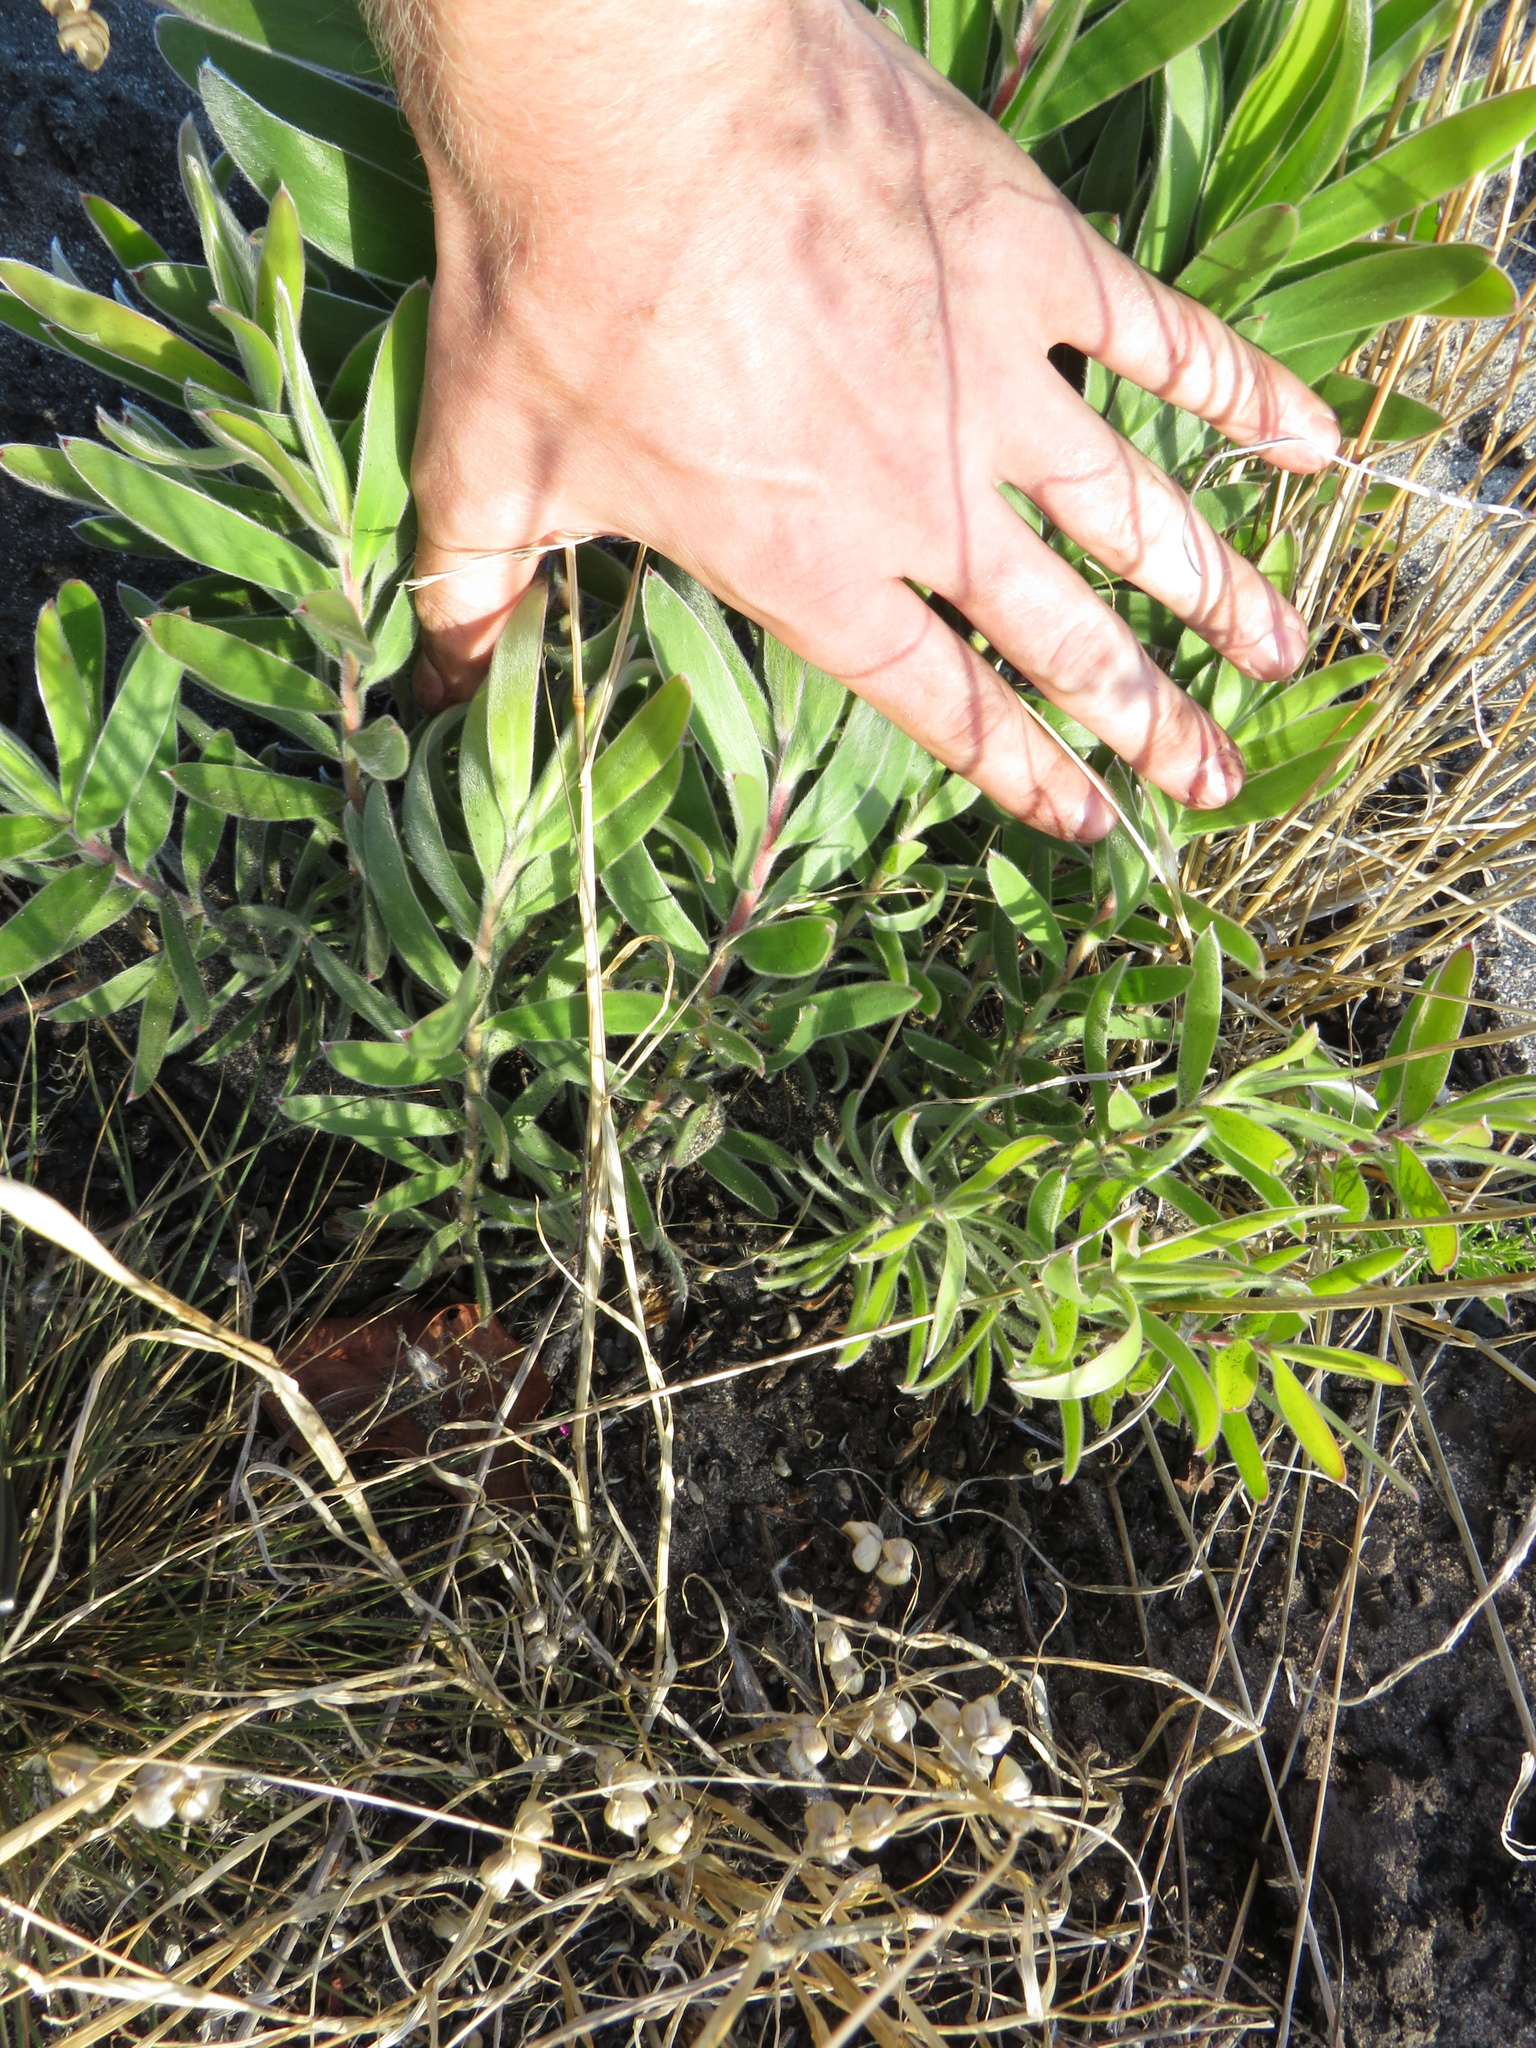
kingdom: Plantae
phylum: Tracheophyta
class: Magnoliopsida
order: Proteales
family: Proteaceae
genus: Leucadendron
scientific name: Leucadendron laureolum
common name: Golden sunshinebush
